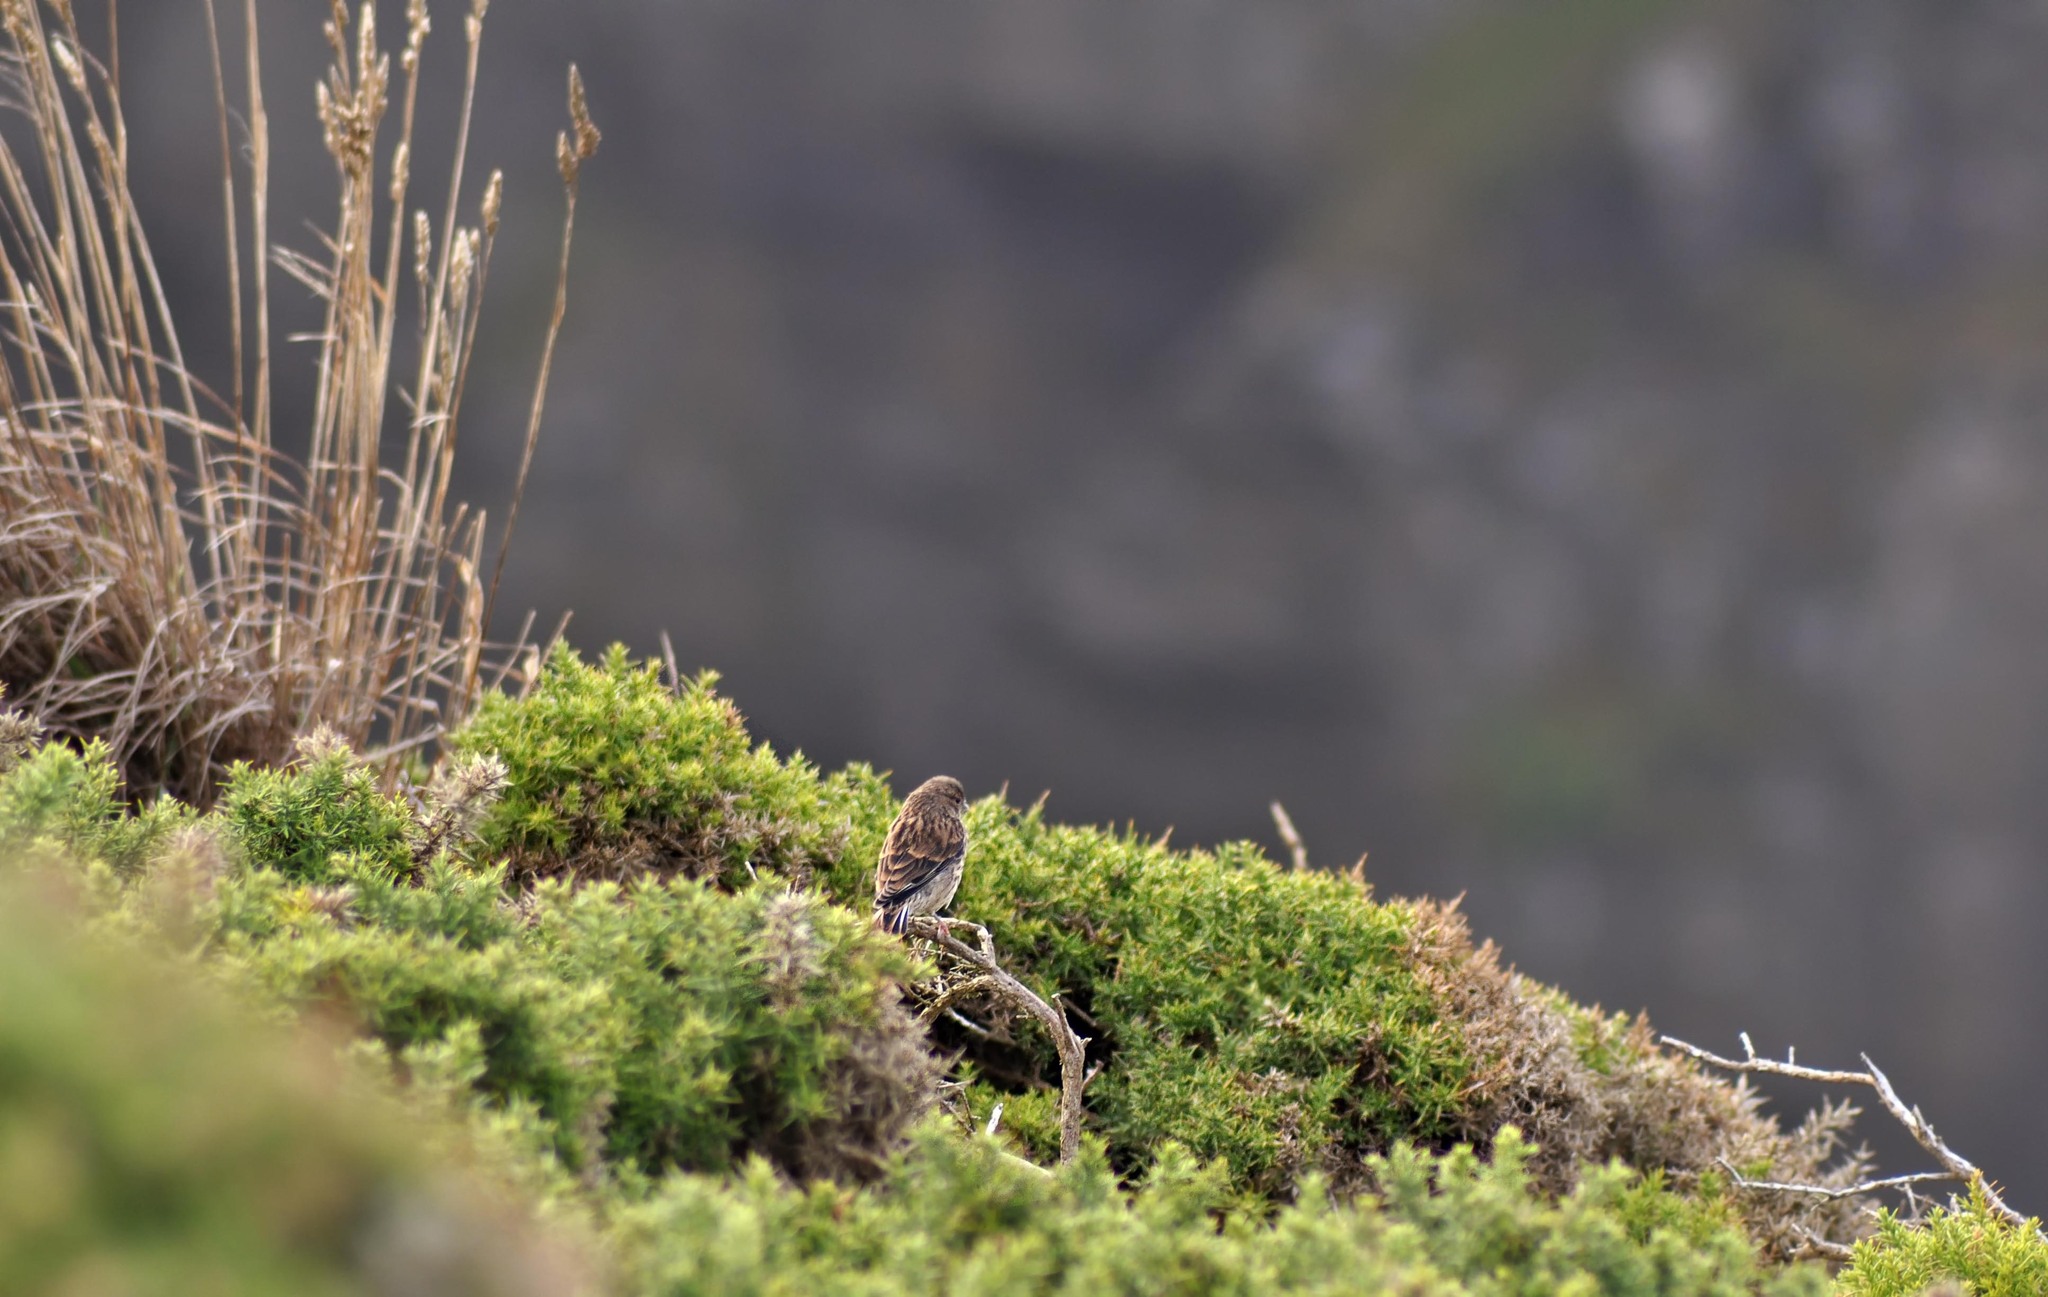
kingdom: Animalia
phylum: Chordata
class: Aves
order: Passeriformes
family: Fringillidae
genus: Linaria
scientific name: Linaria cannabina
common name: Common linnet
